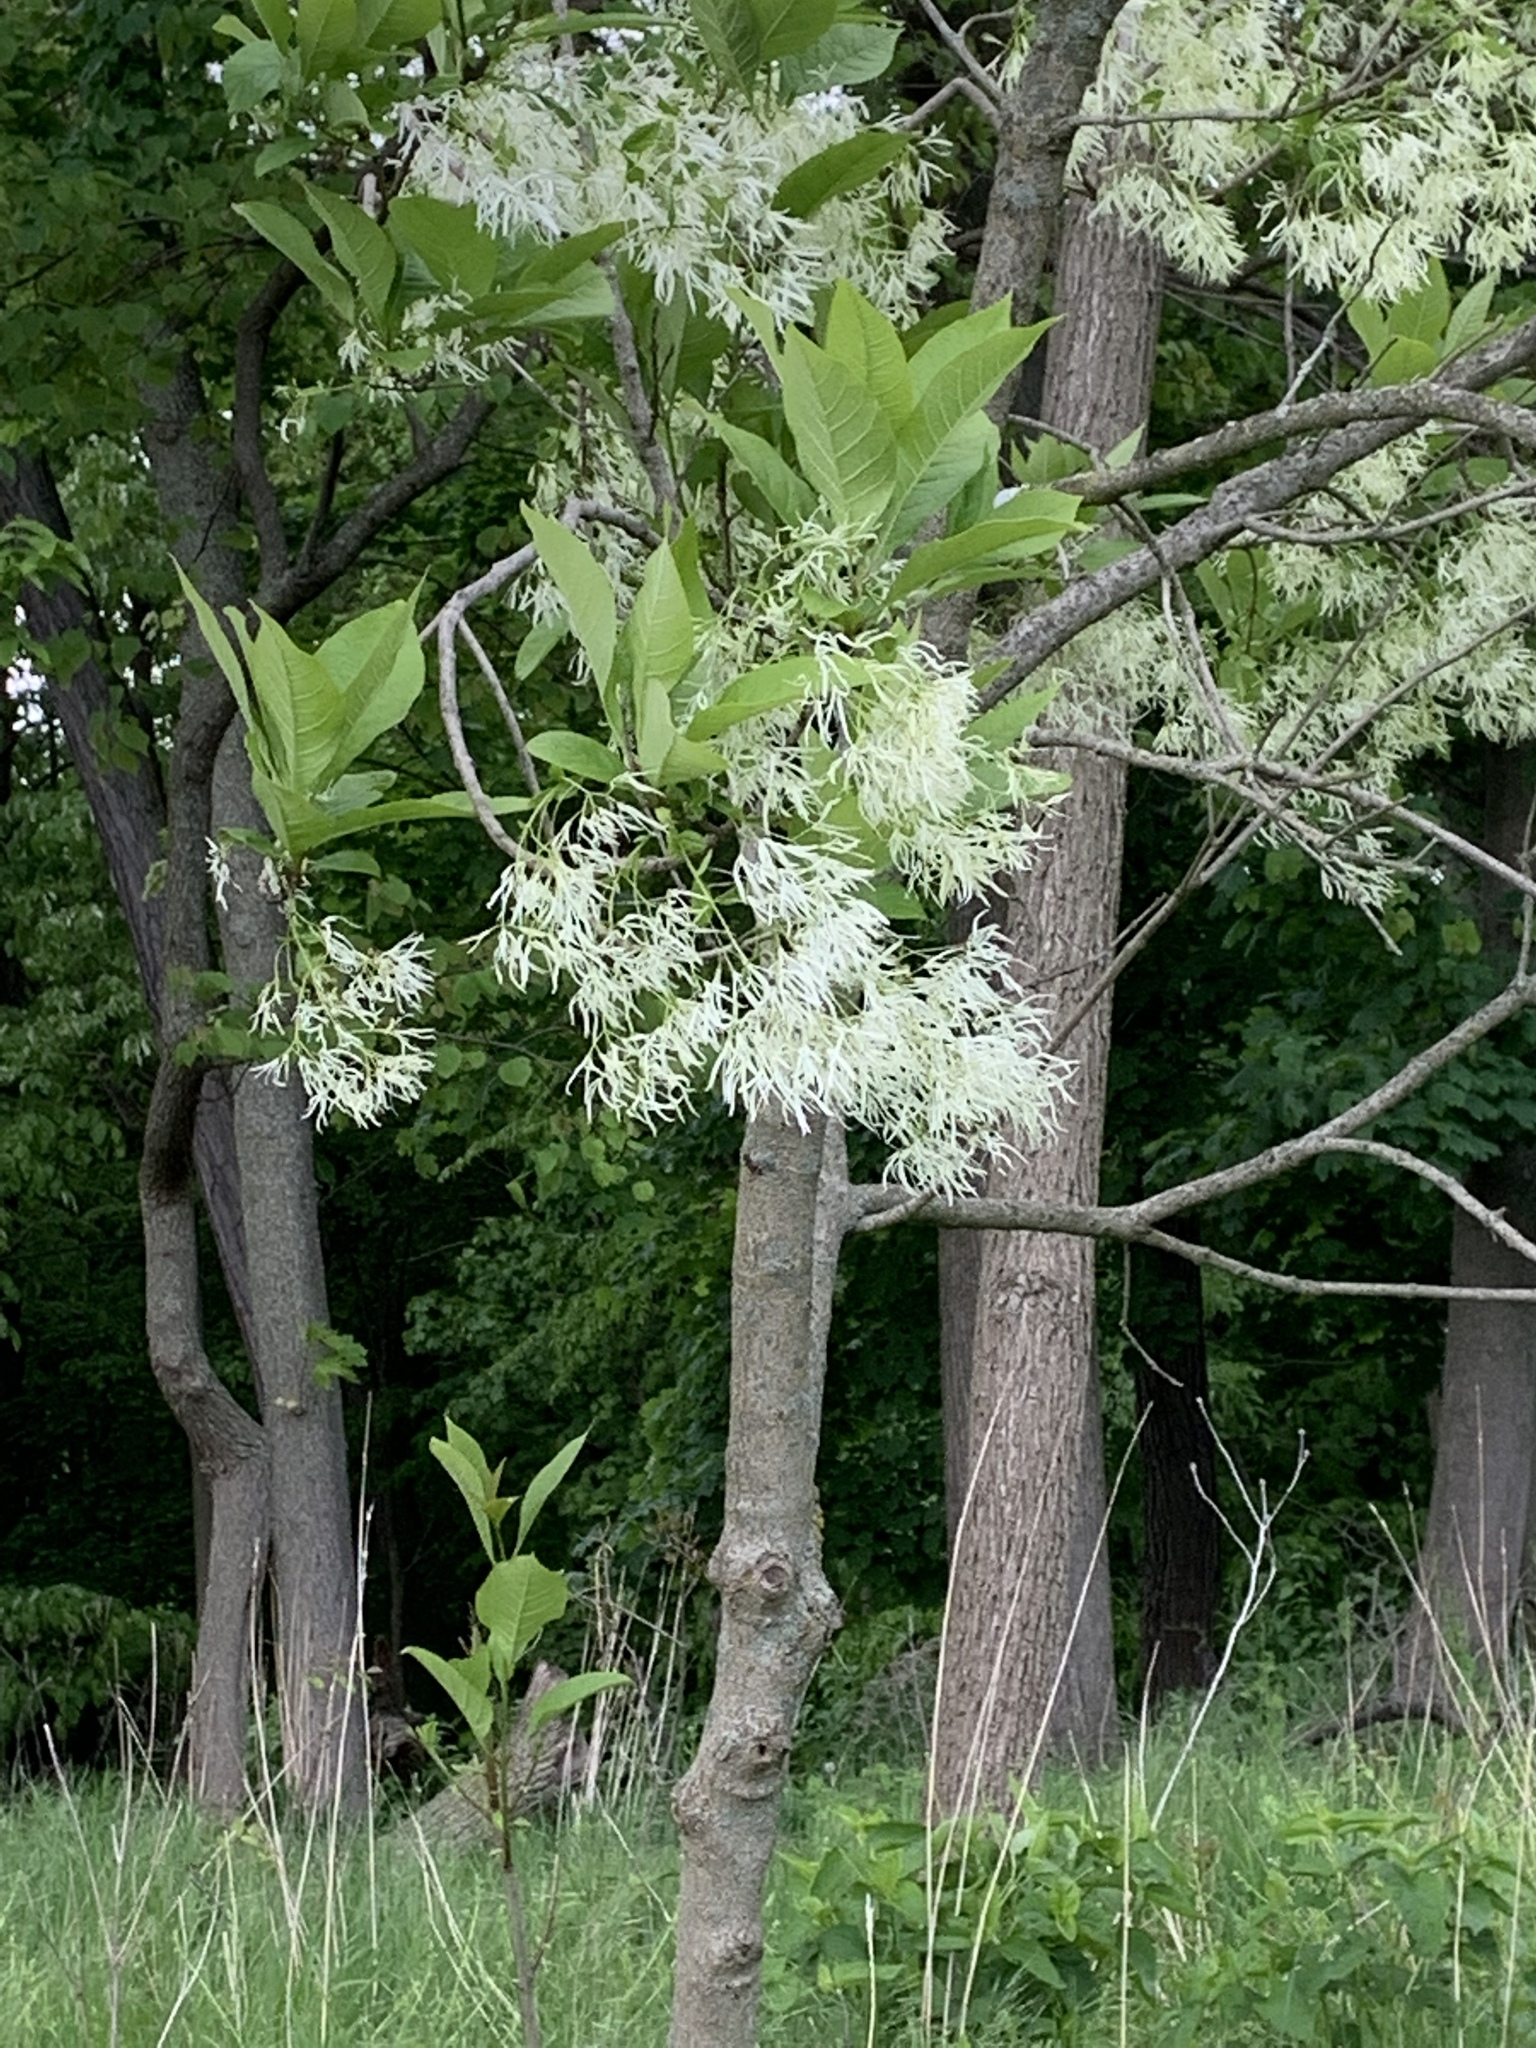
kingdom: Plantae
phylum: Tracheophyta
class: Magnoliopsida
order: Lamiales
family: Oleaceae
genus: Chionanthus
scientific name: Chionanthus virginicus
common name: American fringetree
